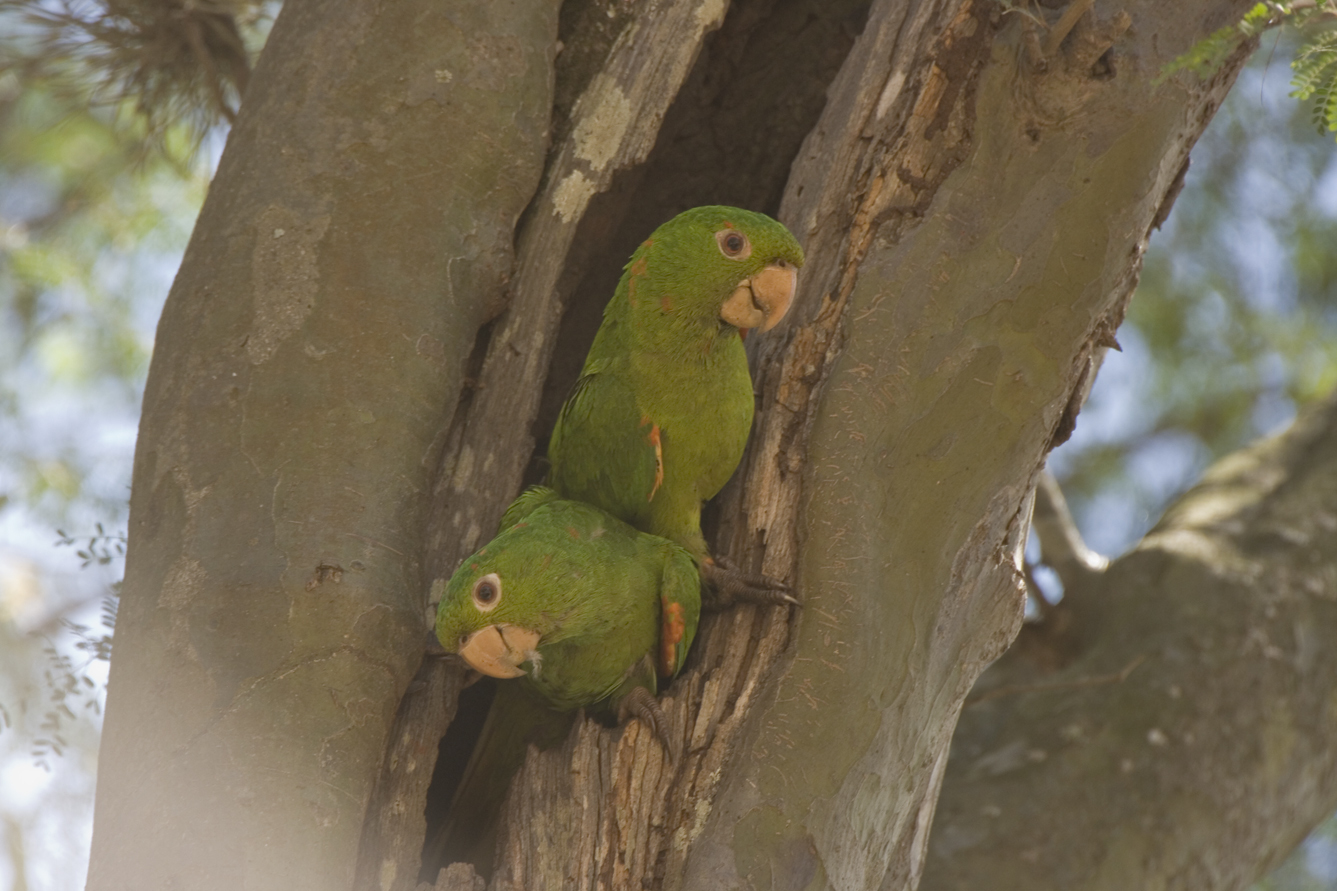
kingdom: Animalia
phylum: Chordata
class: Aves
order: Psittaciformes
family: Psittacidae
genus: Aratinga
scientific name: Aratinga leucophthalma
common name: White-eyed parakeet
